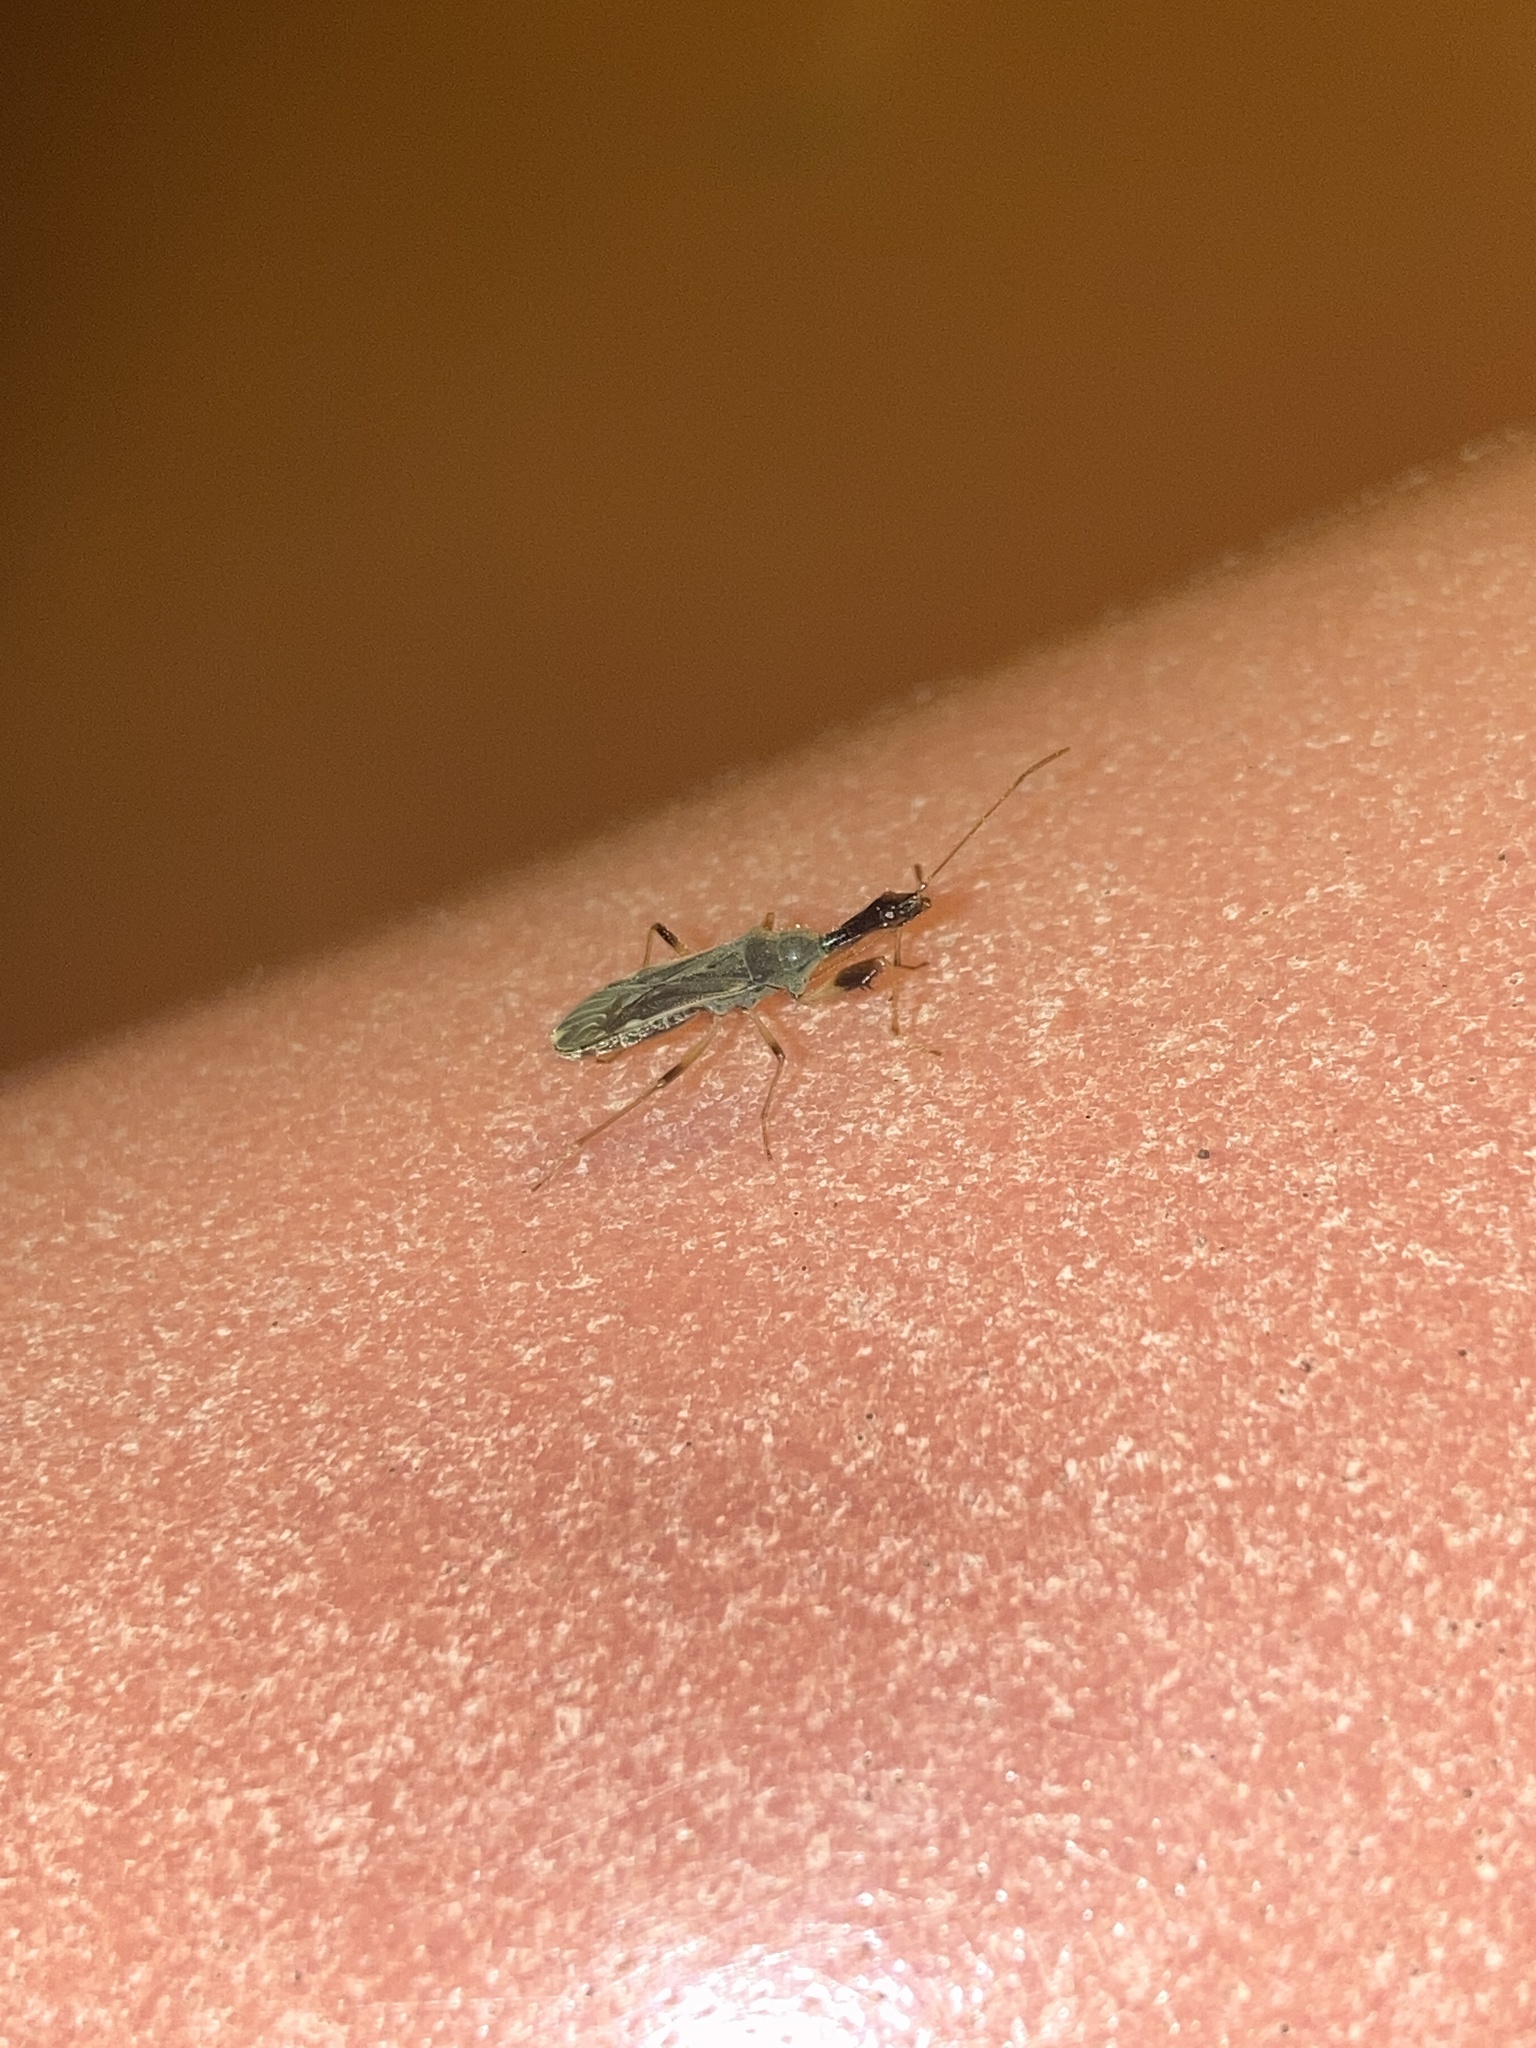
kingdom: Animalia
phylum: Arthropoda
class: Insecta
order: Hemiptera
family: Rhyparochromidae
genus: Myodocha
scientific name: Myodocha serripes
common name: Long-necked seed bug
